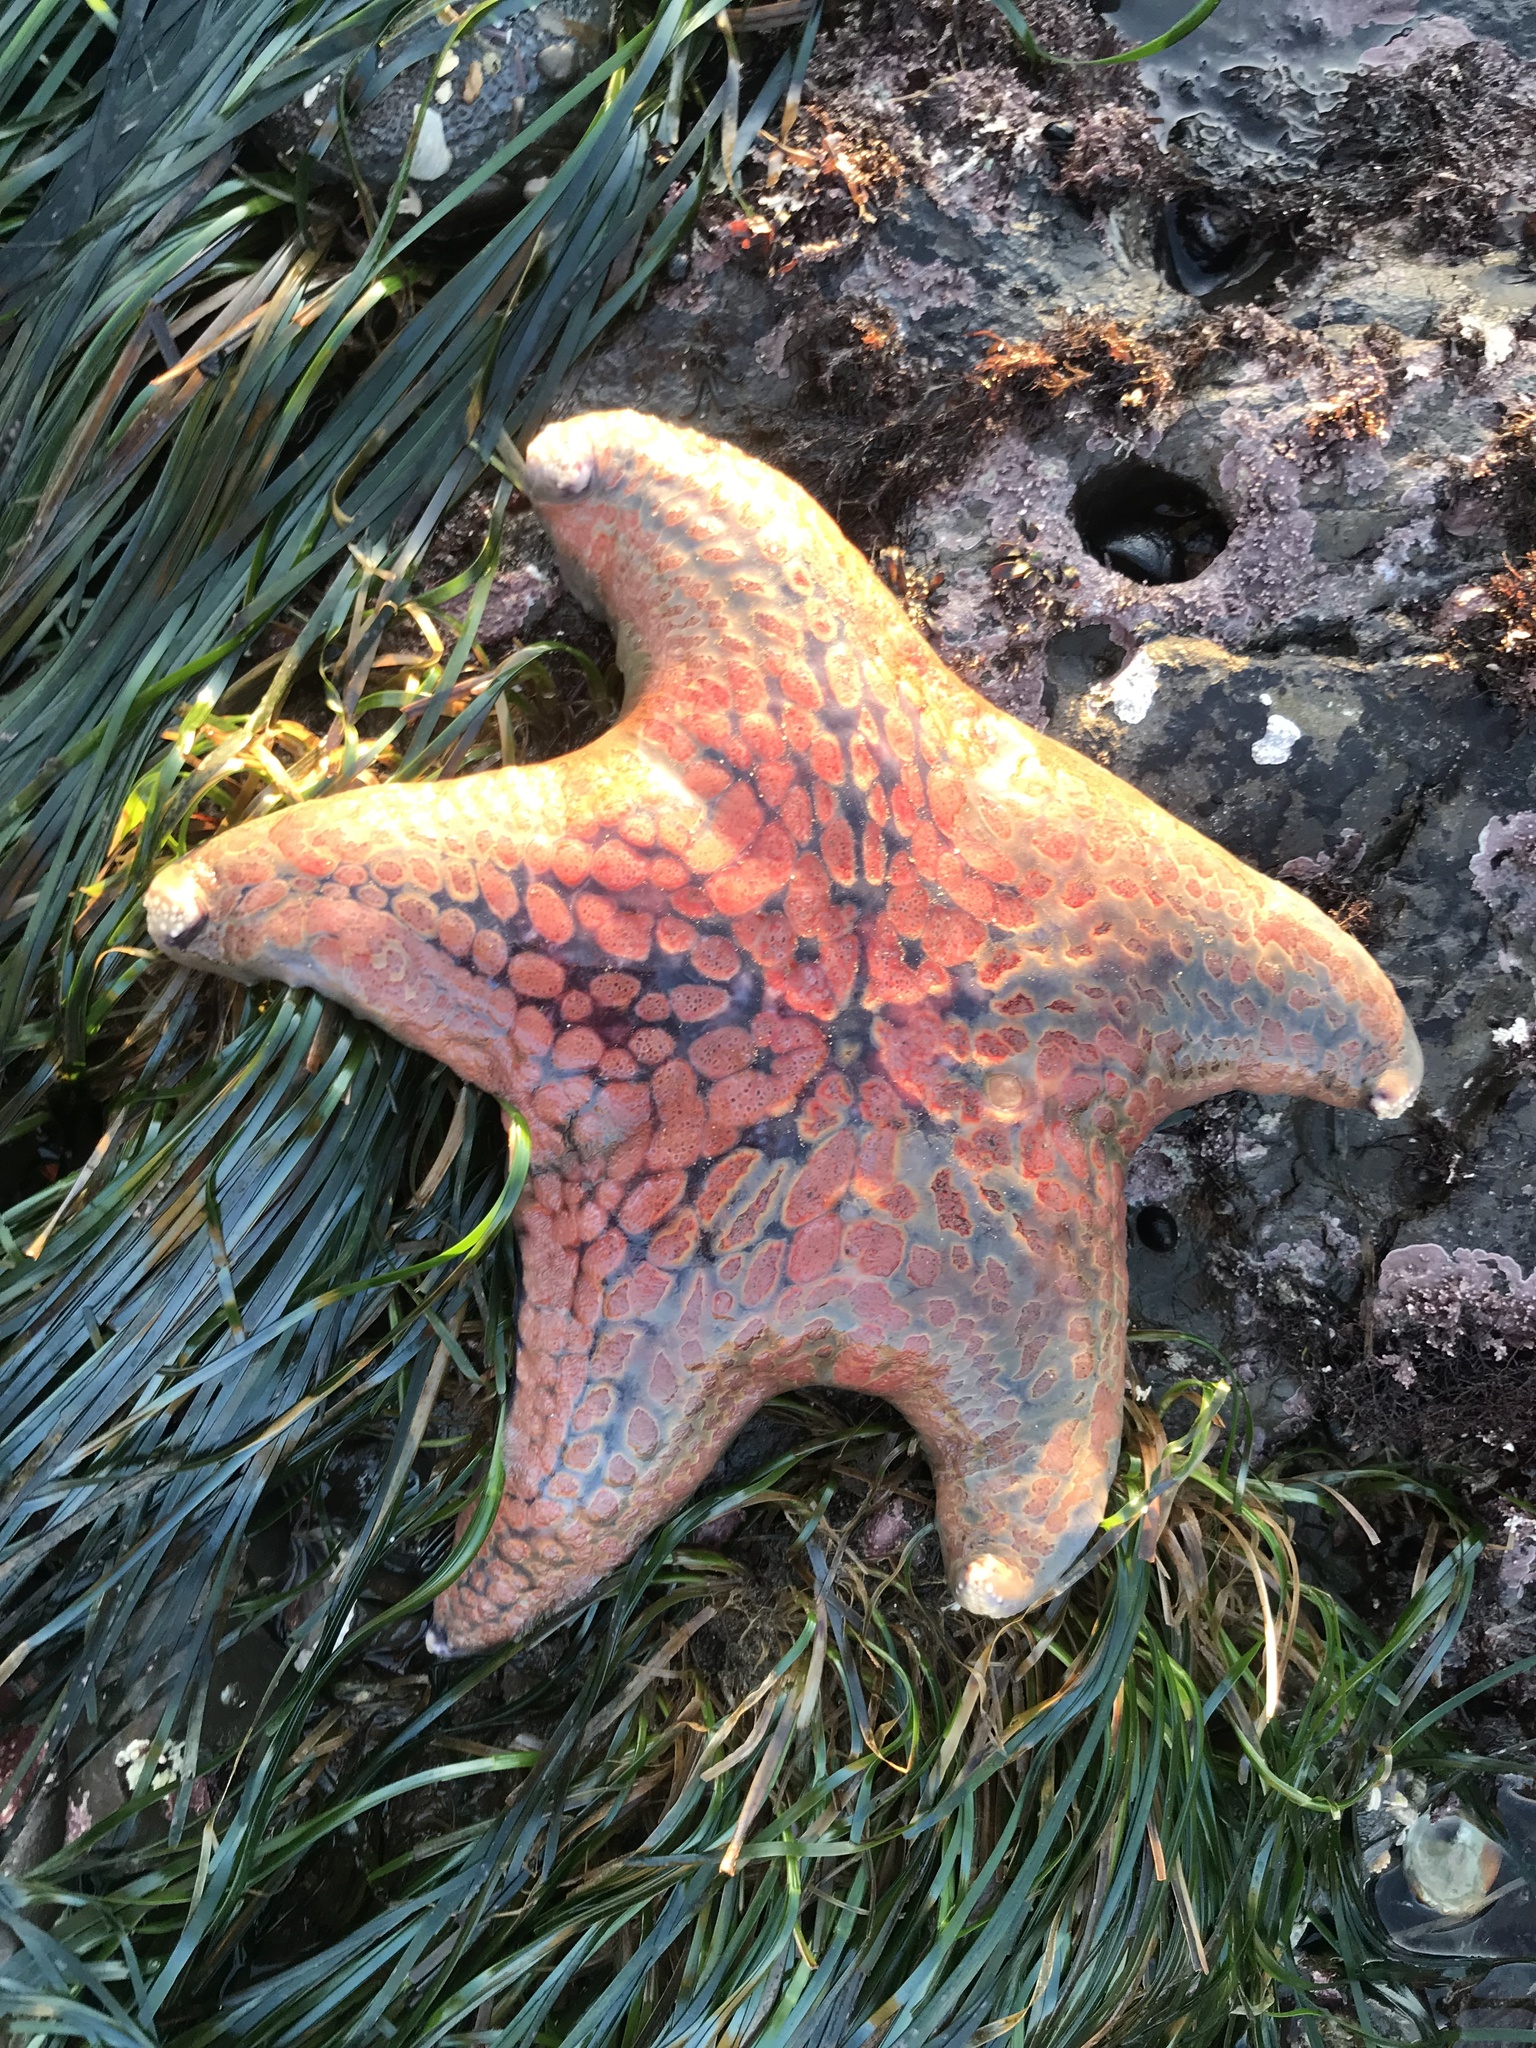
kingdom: Animalia
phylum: Echinodermata
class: Asteroidea
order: Valvatida
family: Asteropseidae
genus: Dermasterias
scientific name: Dermasterias imbricata
